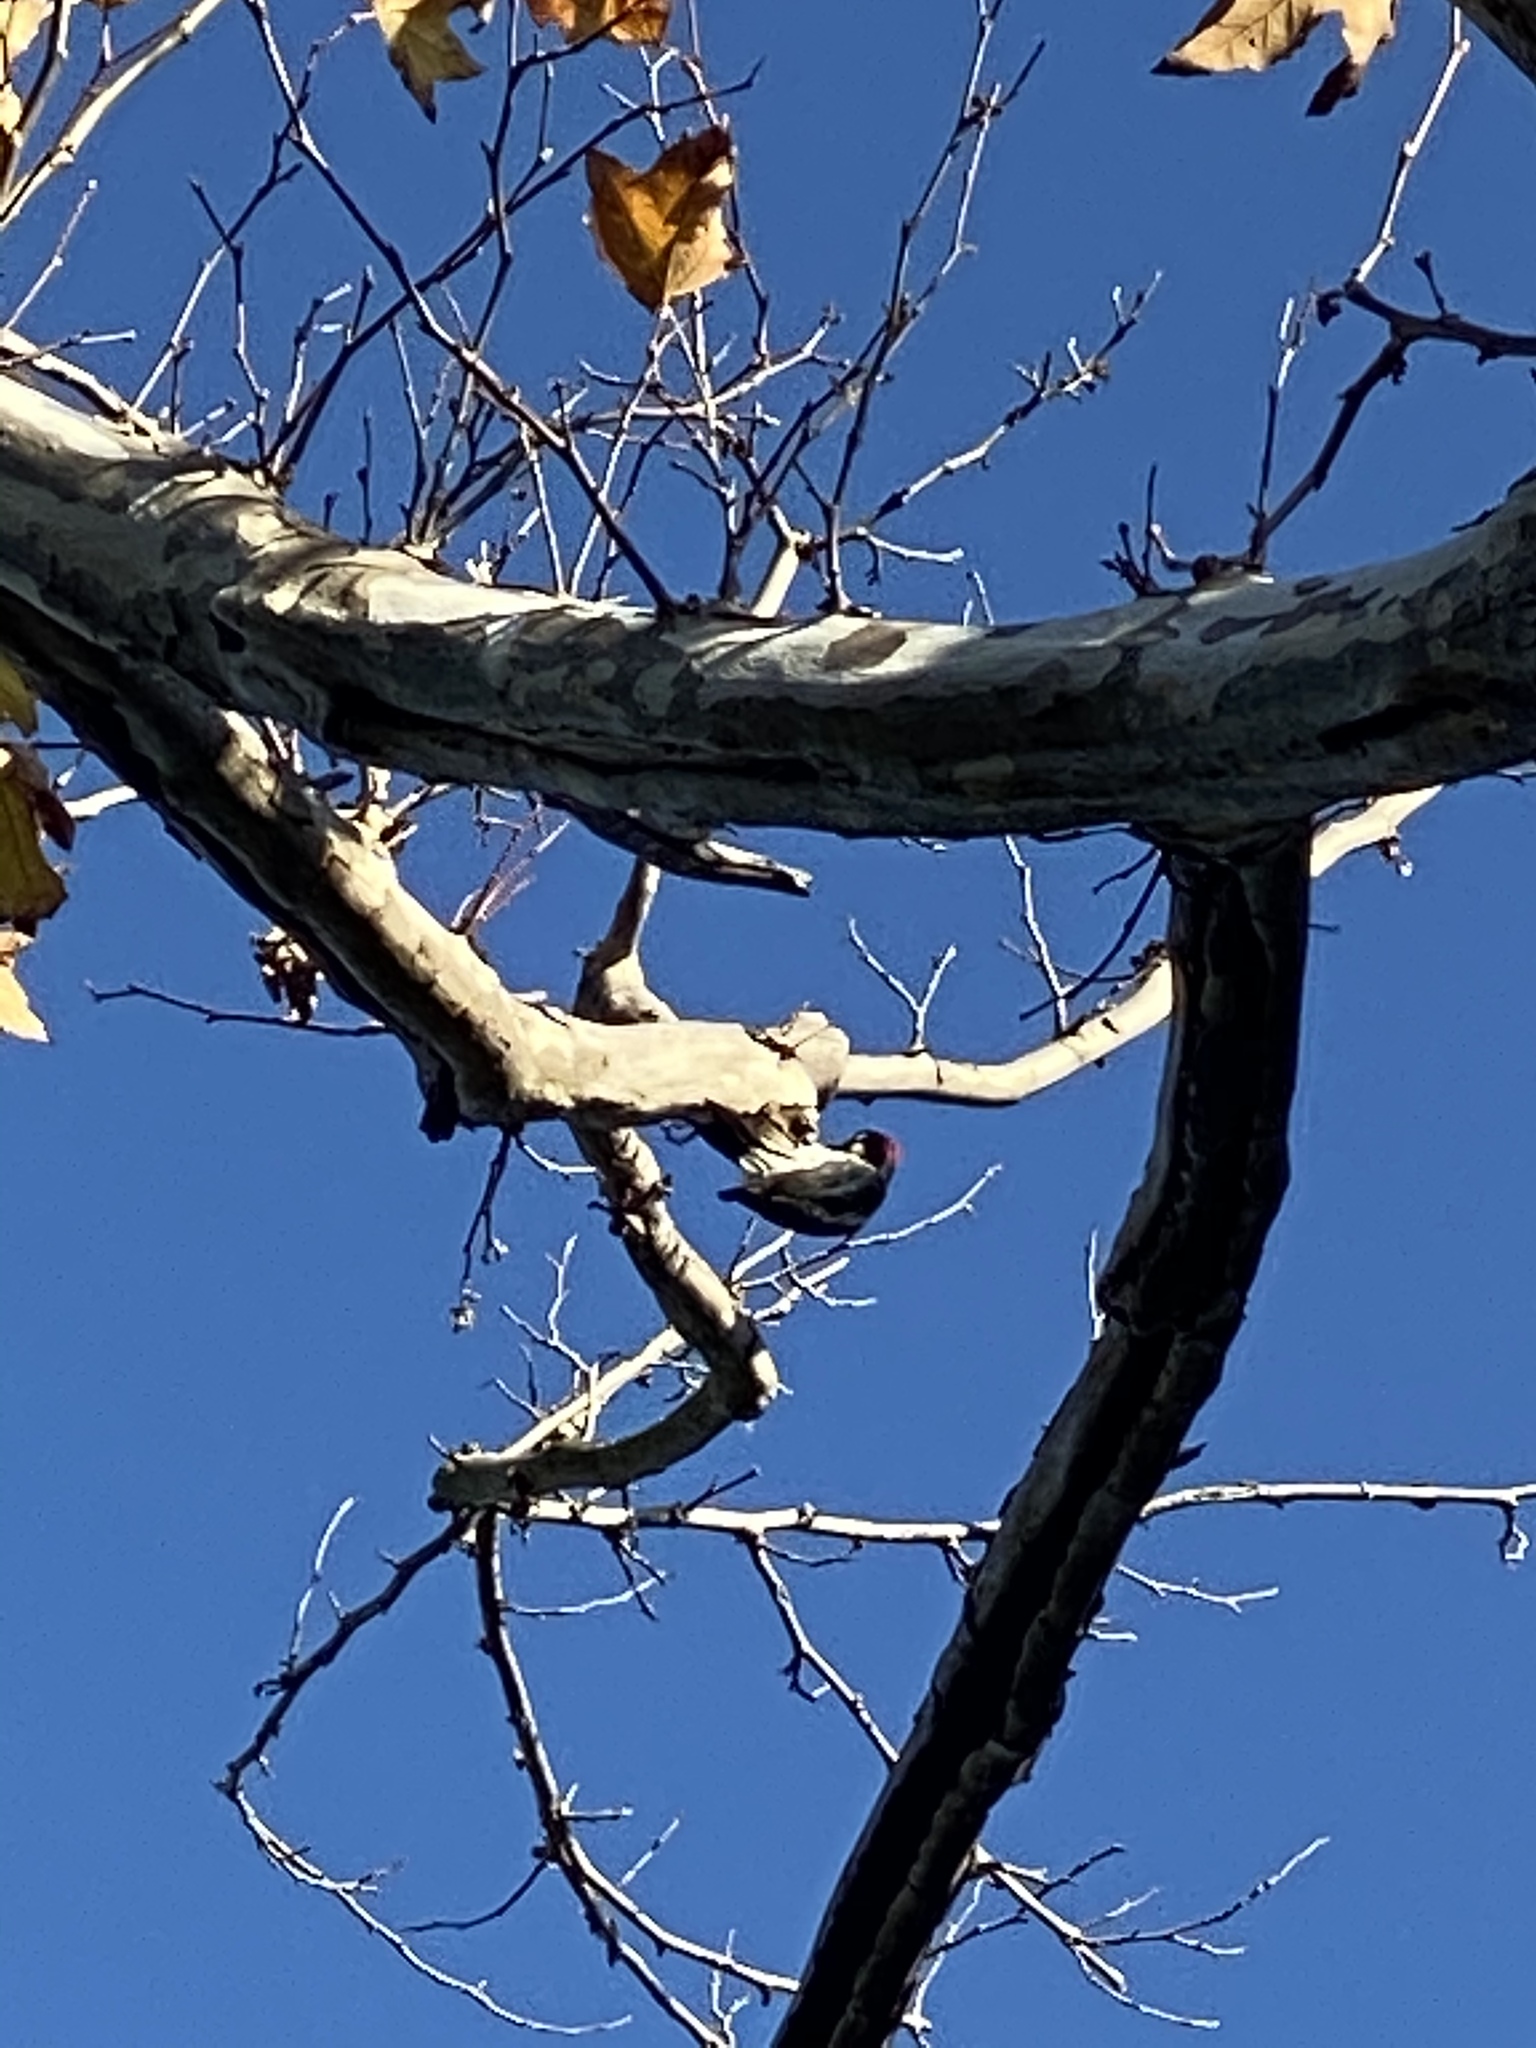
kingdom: Animalia
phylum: Chordata
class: Aves
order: Piciformes
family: Picidae
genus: Melanerpes
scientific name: Melanerpes formicivorus
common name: Acorn woodpecker
